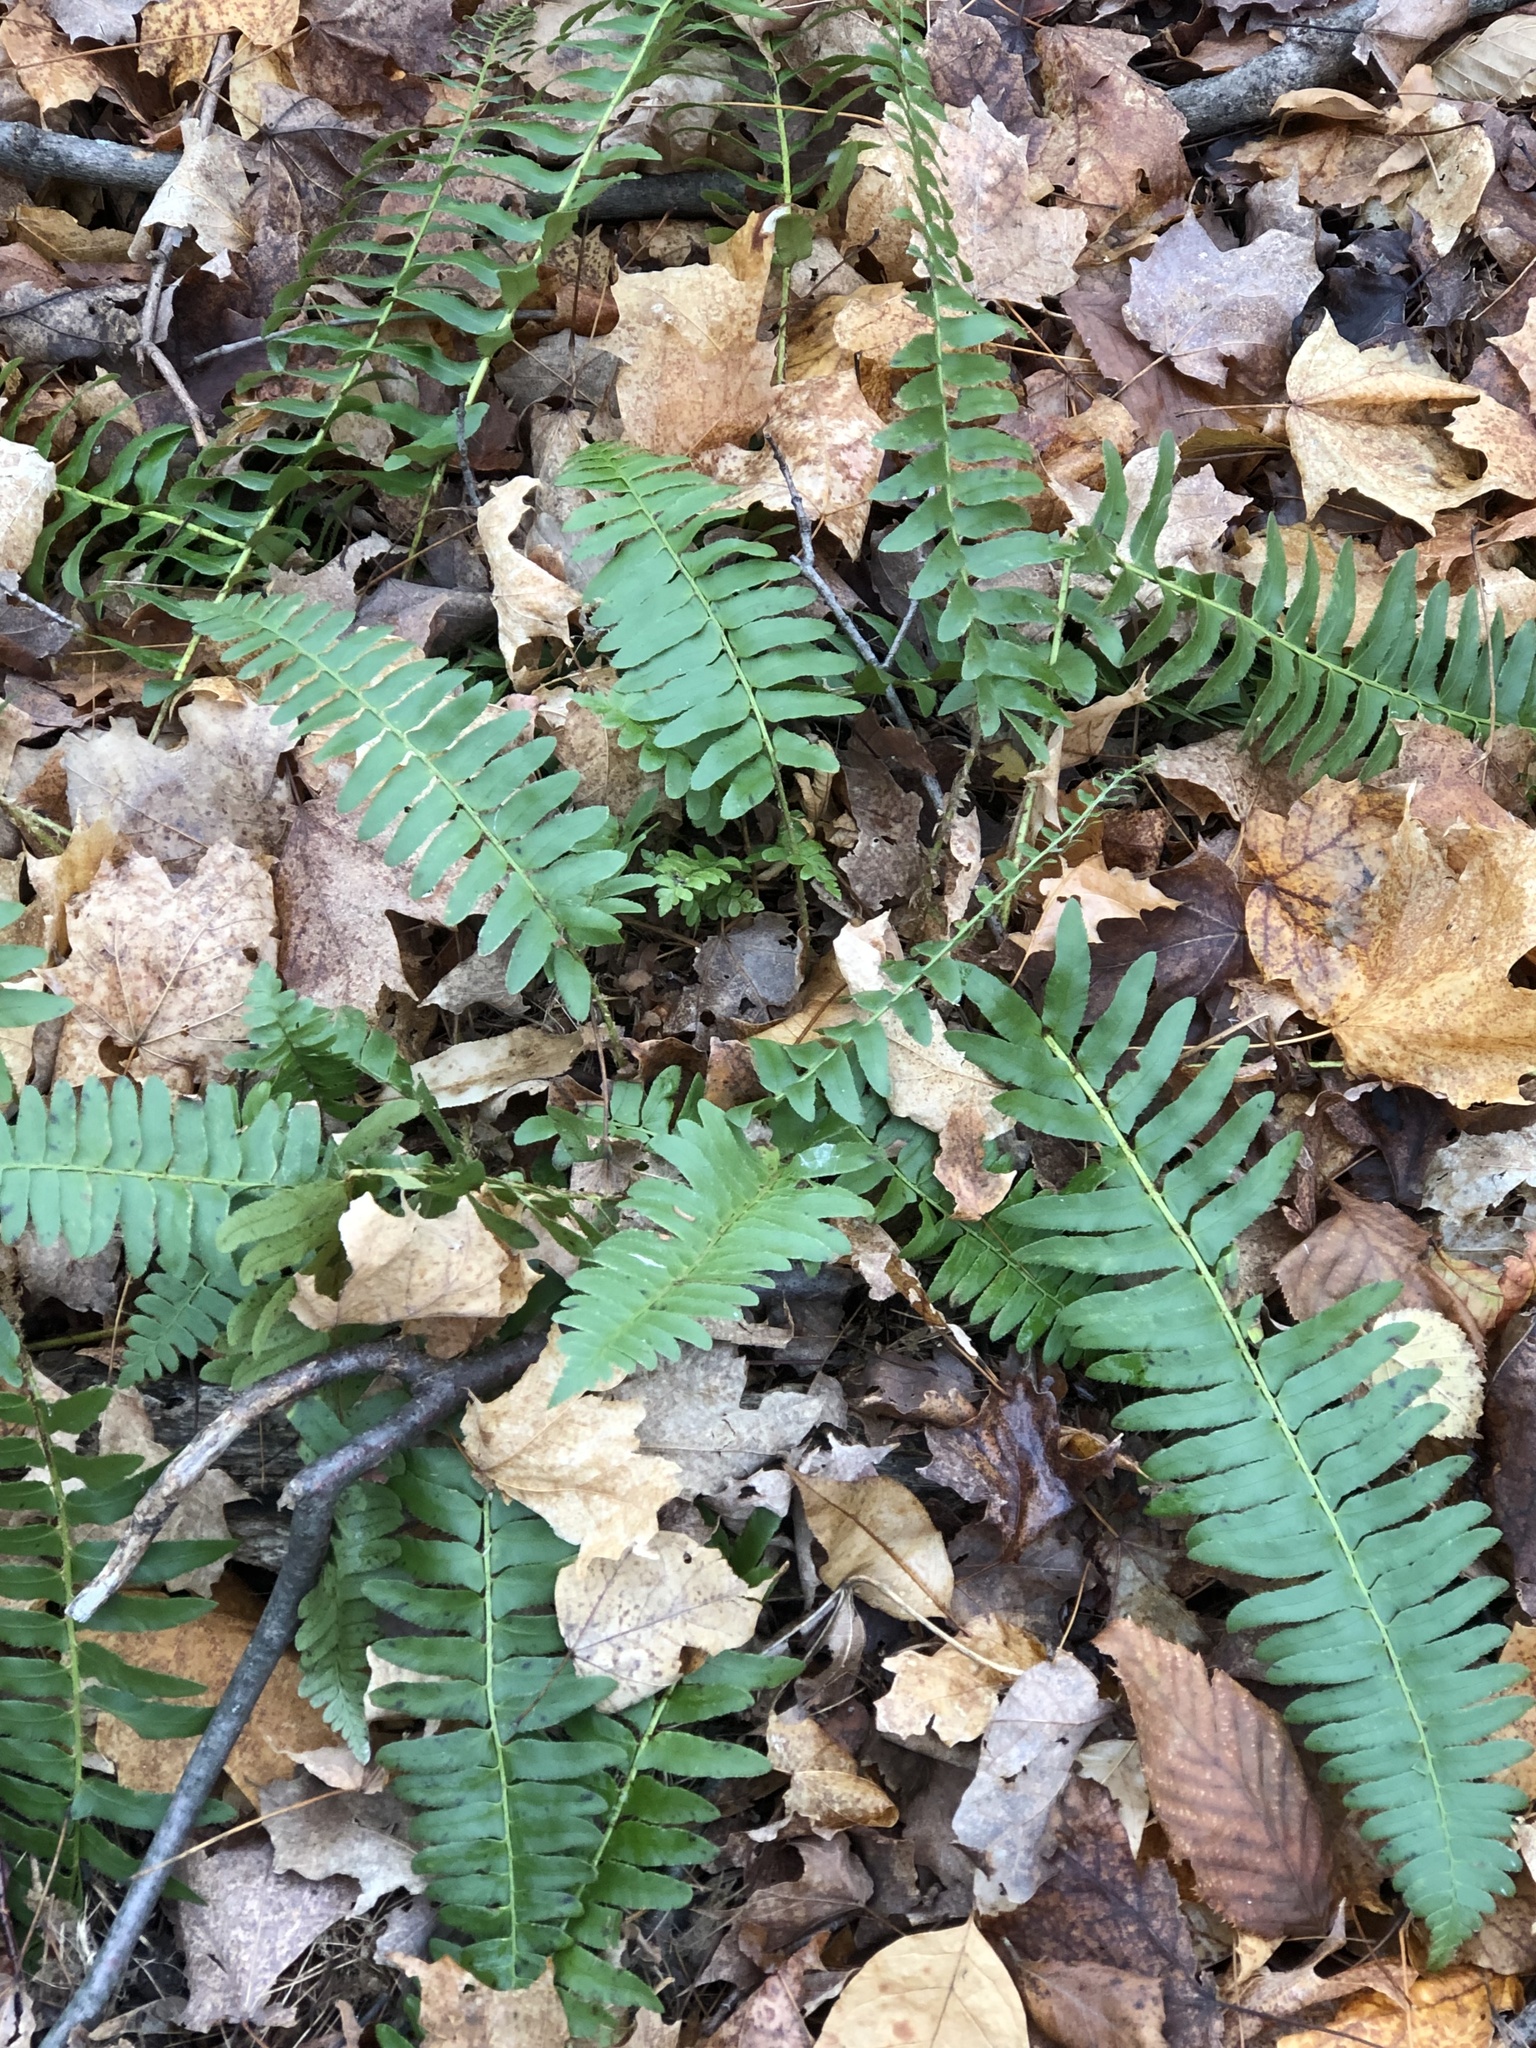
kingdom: Plantae
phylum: Tracheophyta
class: Polypodiopsida
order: Polypodiales
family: Dryopteridaceae
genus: Polystichum
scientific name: Polystichum acrostichoides
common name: Christmas fern
